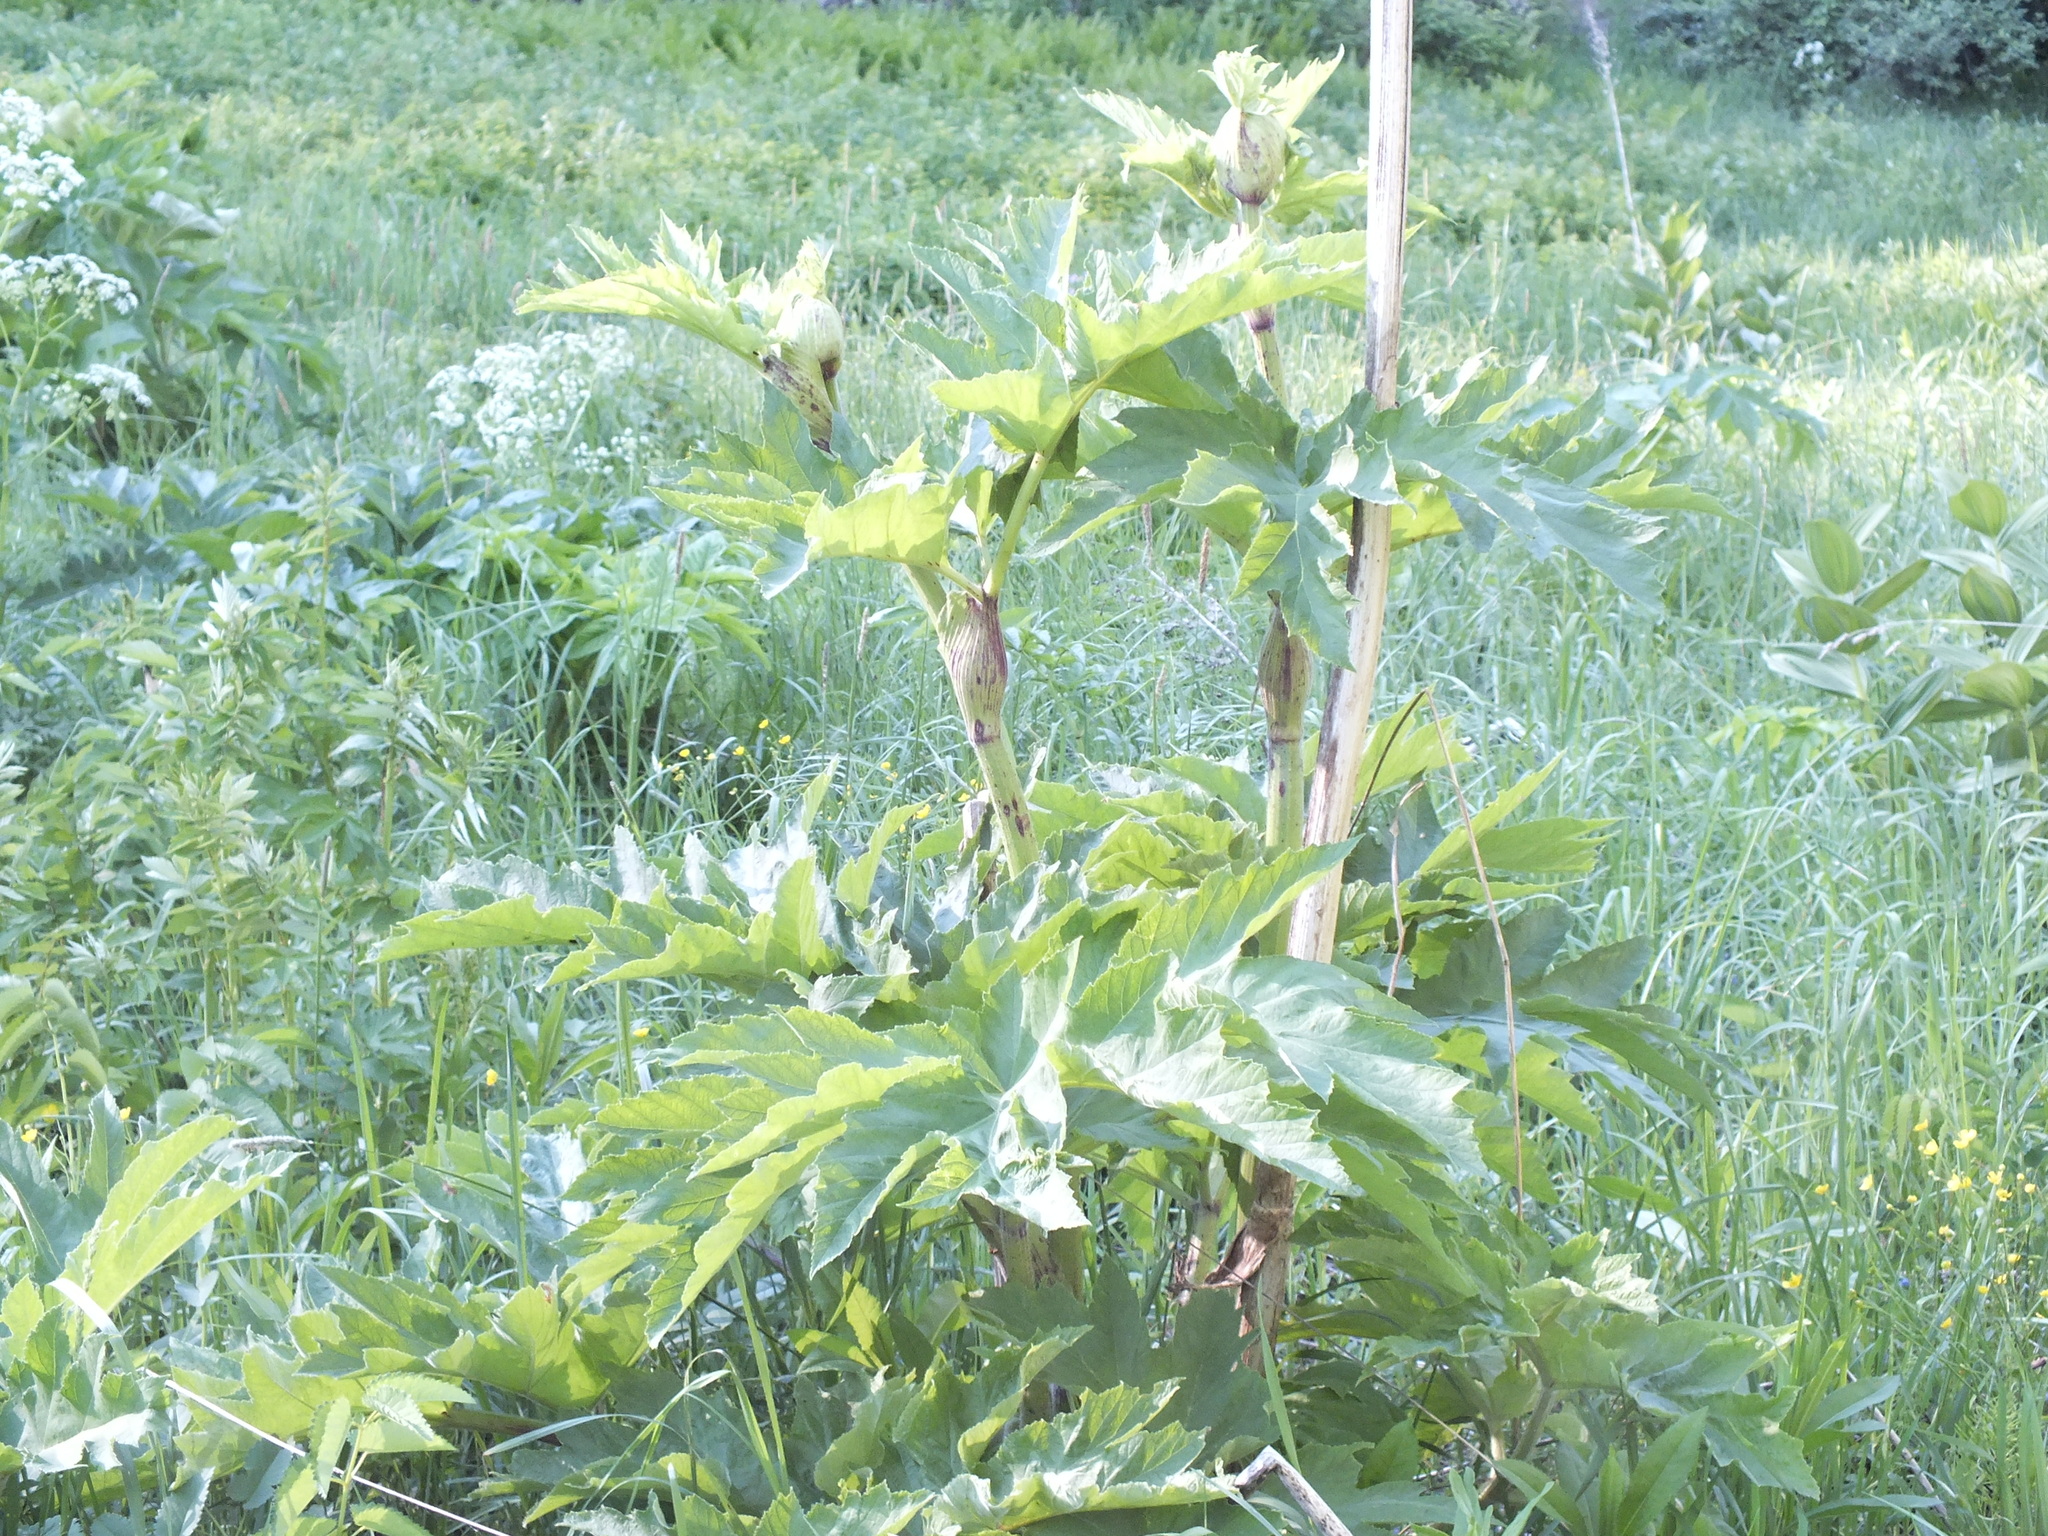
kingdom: Plantae
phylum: Tracheophyta
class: Magnoliopsida
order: Apiales
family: Apiaceae
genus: Heracleum
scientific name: Heracleum dissectum
